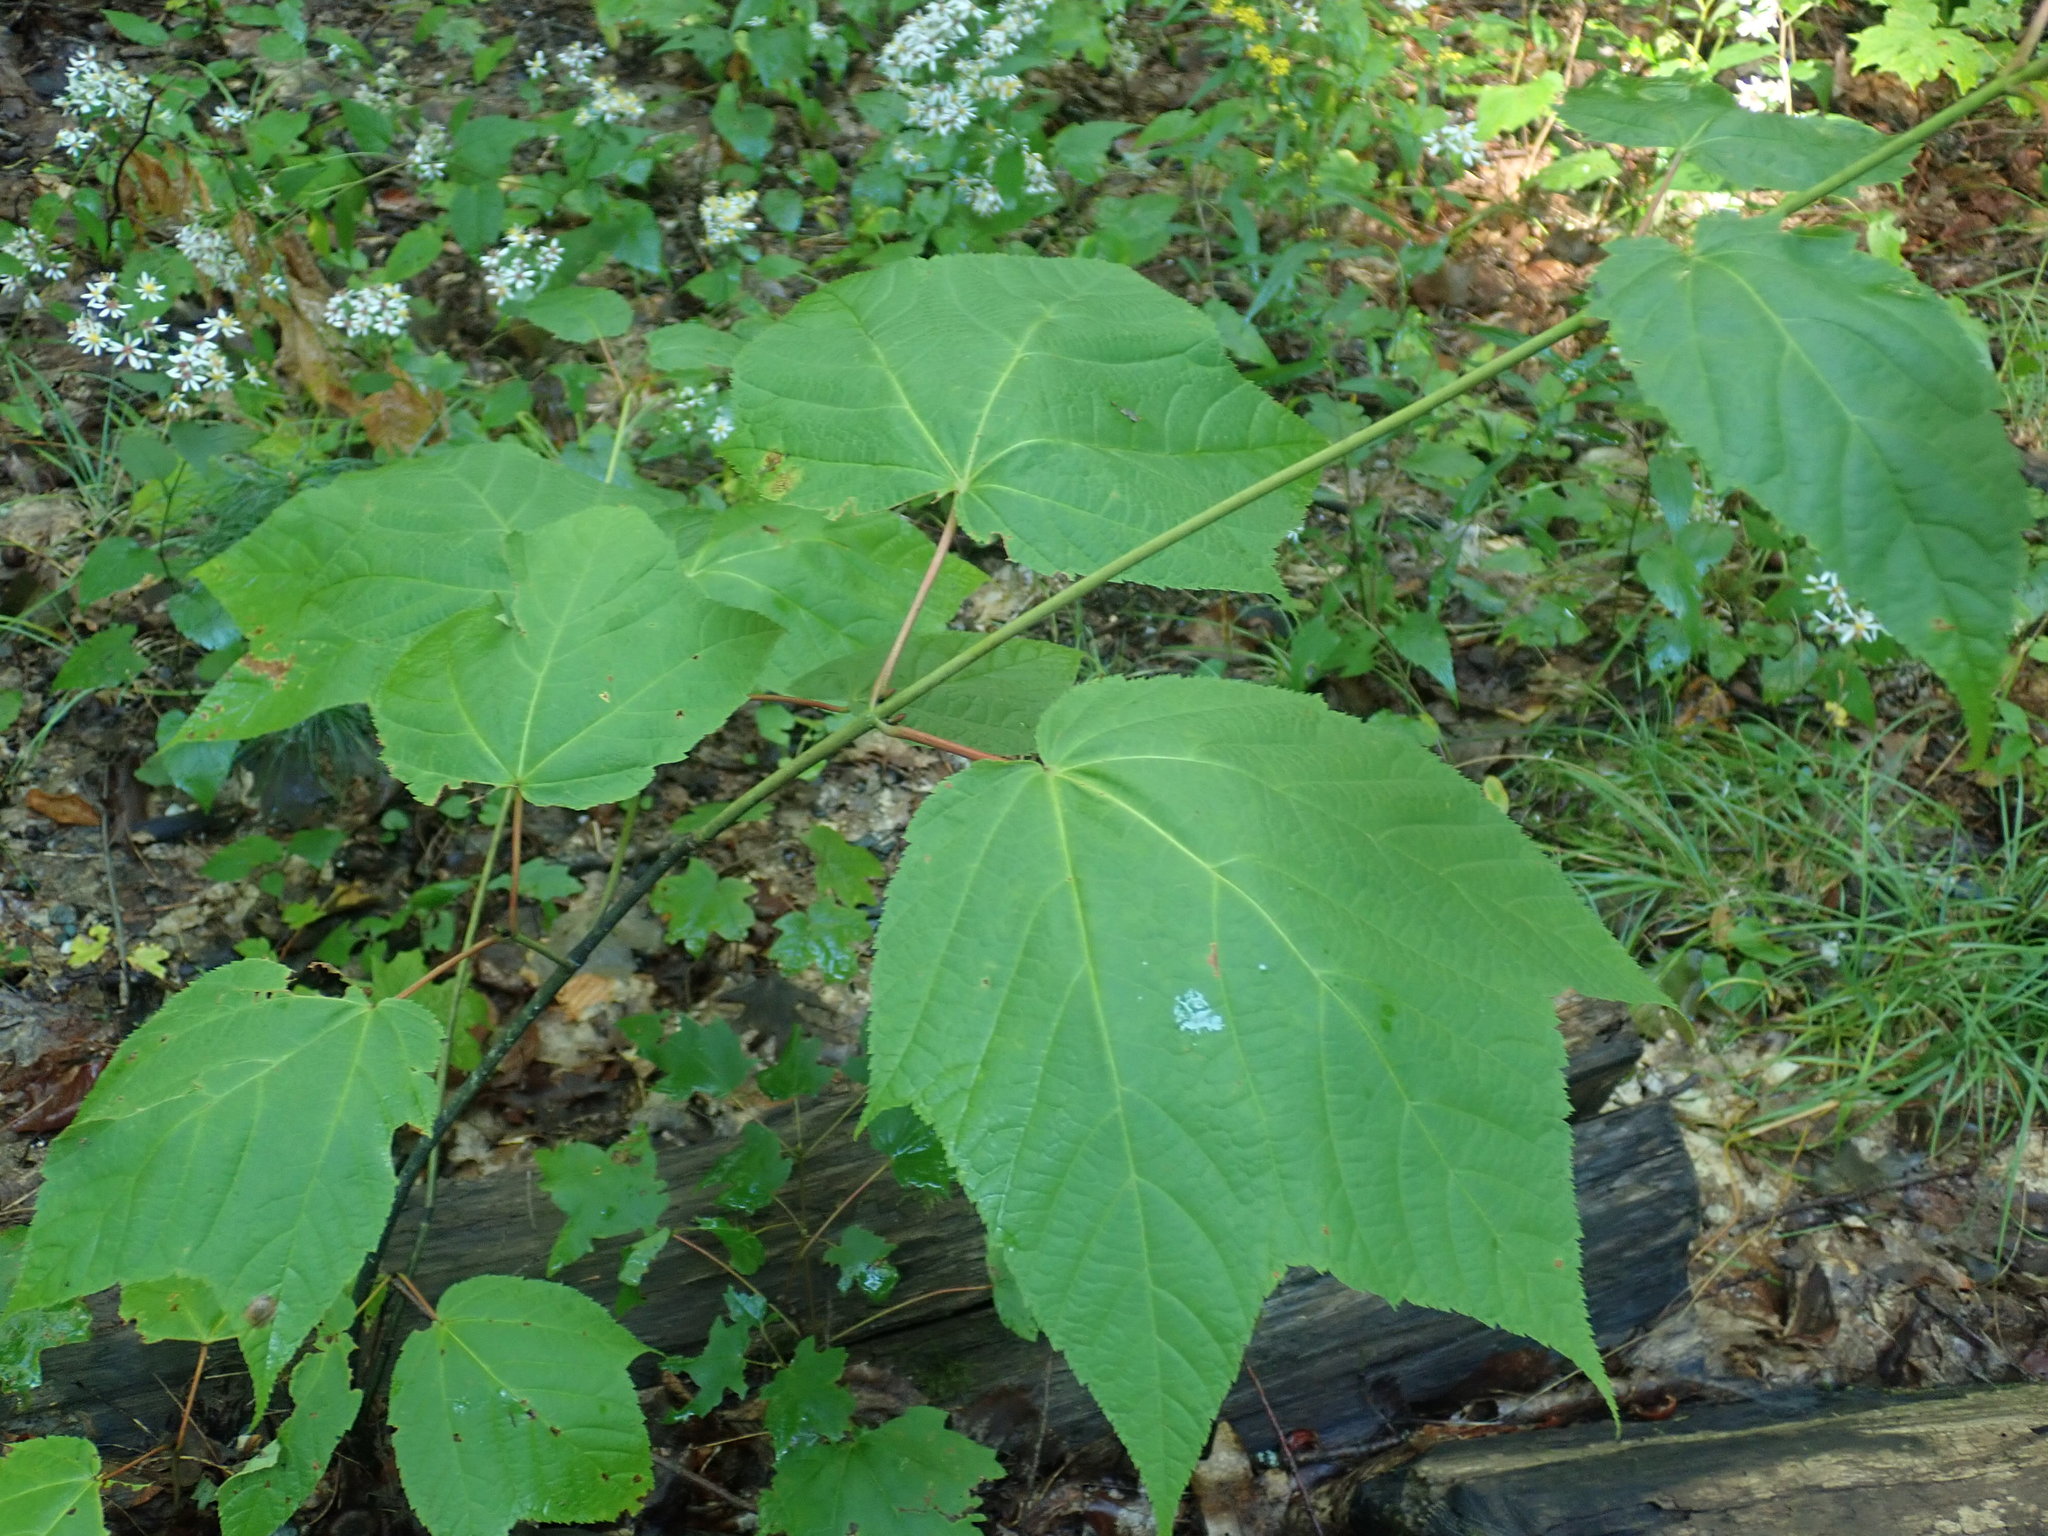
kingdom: Plantae
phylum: Tracheophyta
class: Magnoliopsida
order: Sapindales
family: Sapindaceae
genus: Acer
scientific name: Acer pensylvanicum
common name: Moosewood
